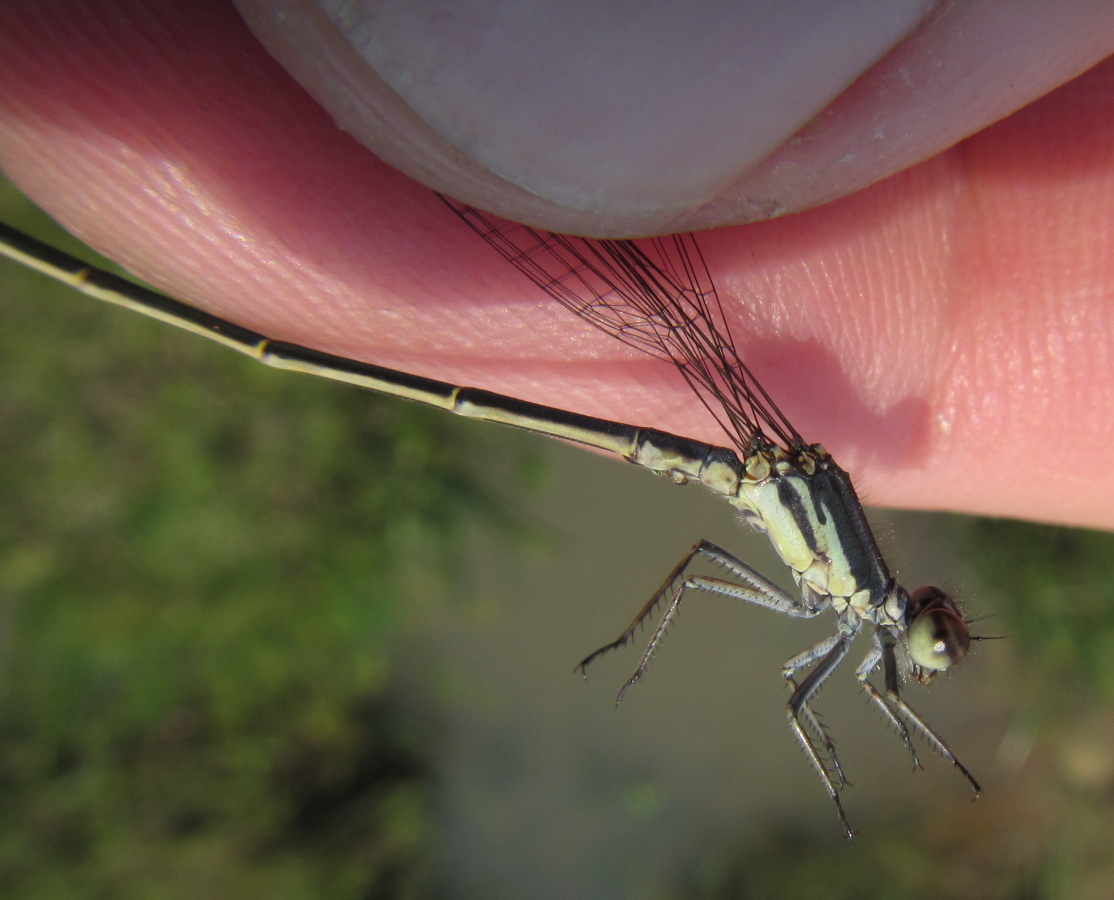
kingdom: Animalia
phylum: Arthropoda
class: Insecta
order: Odonata
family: Coenagrionidae
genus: Pseudagrion
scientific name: Pseudagrion spernatum
